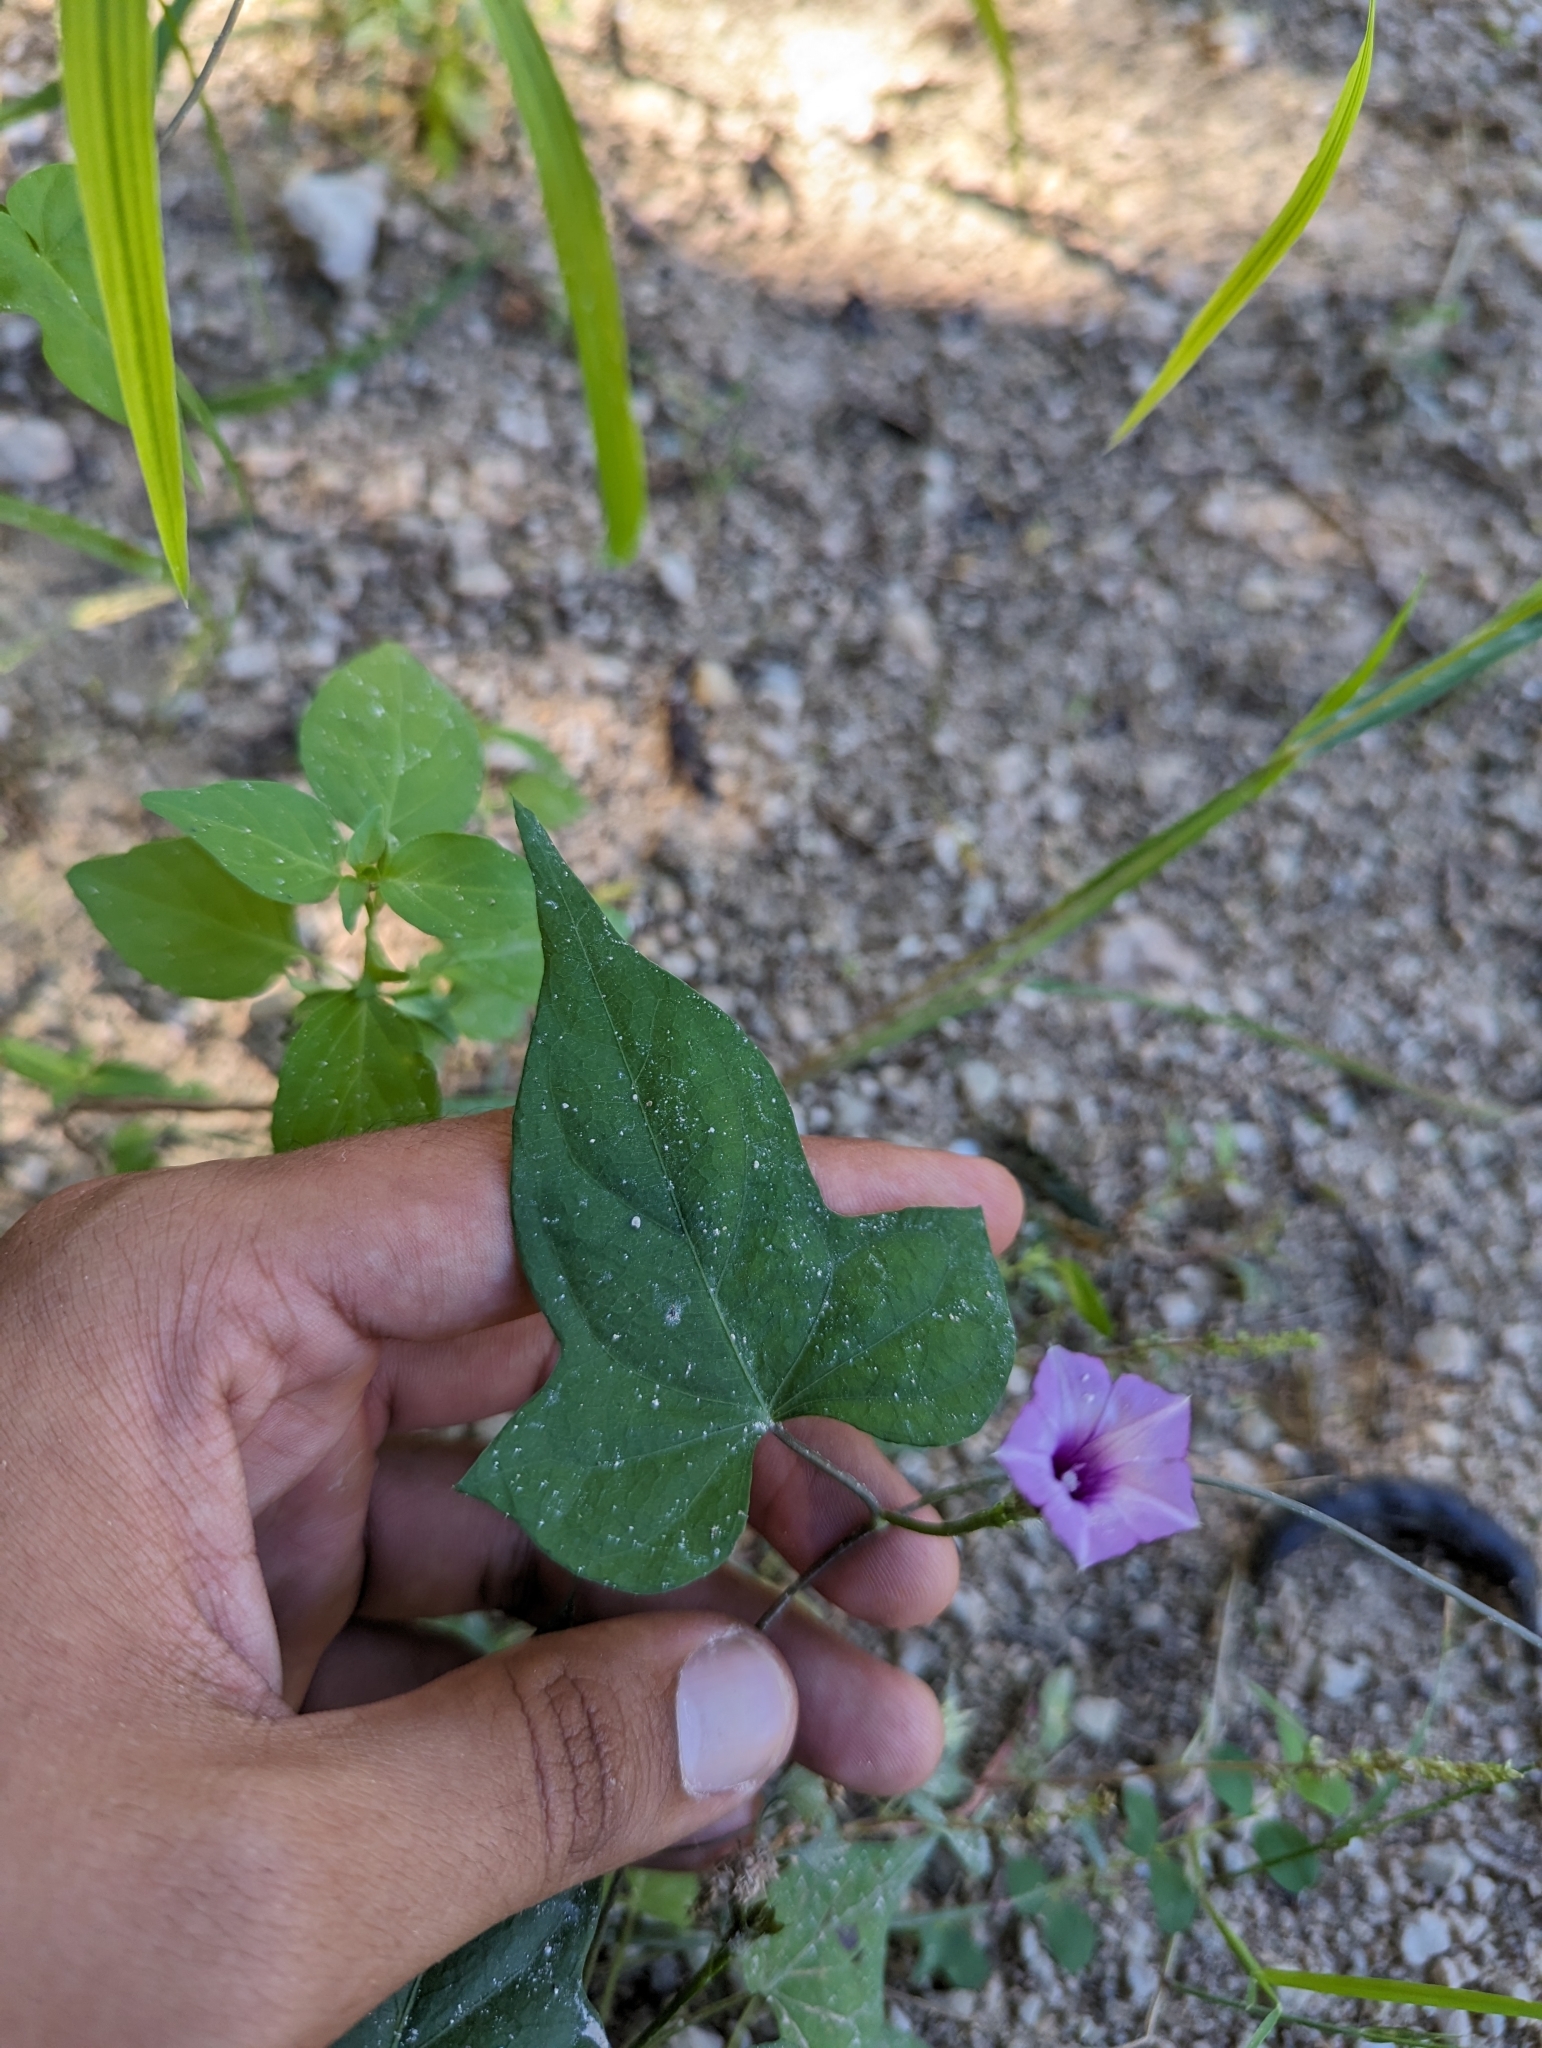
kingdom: Plantae
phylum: Tracheophyta
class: Magnoliopsida
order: Solanales
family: Convolvulaceae
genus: Ipomoea
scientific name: Ipomoea triloba
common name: Little-bell
